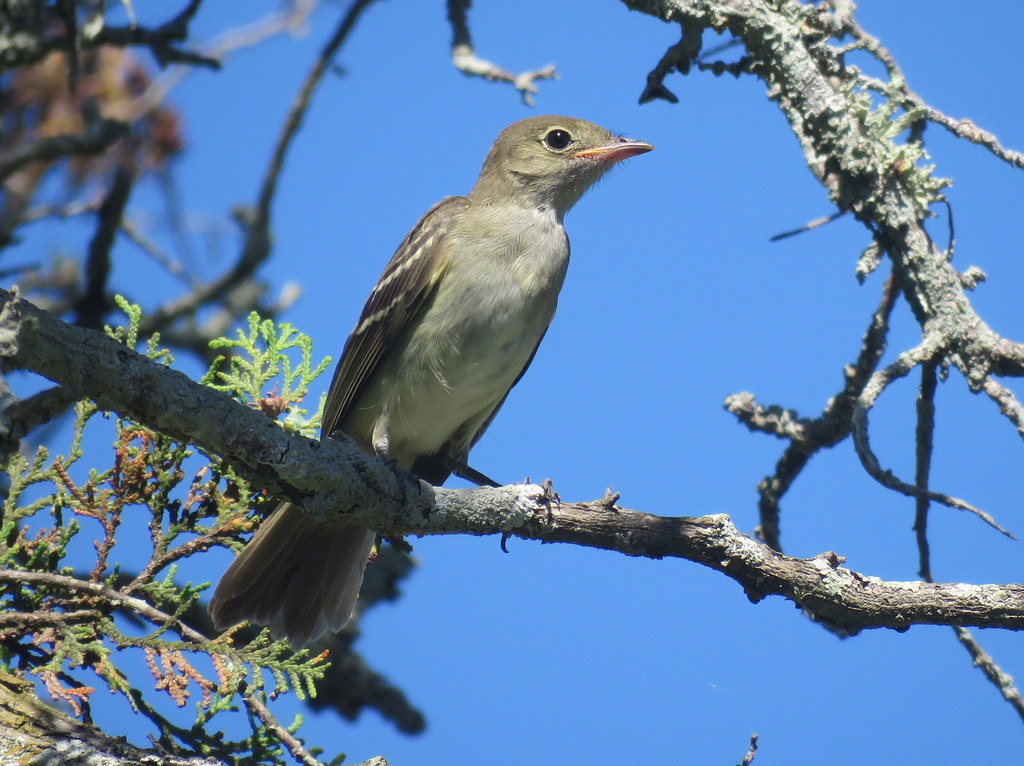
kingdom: Animalia
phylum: Chordata
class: Aves
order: Passeriformes
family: Tyrannidae
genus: Elaenia
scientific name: Elaenia parvirostris
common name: Small-billed elaenia
